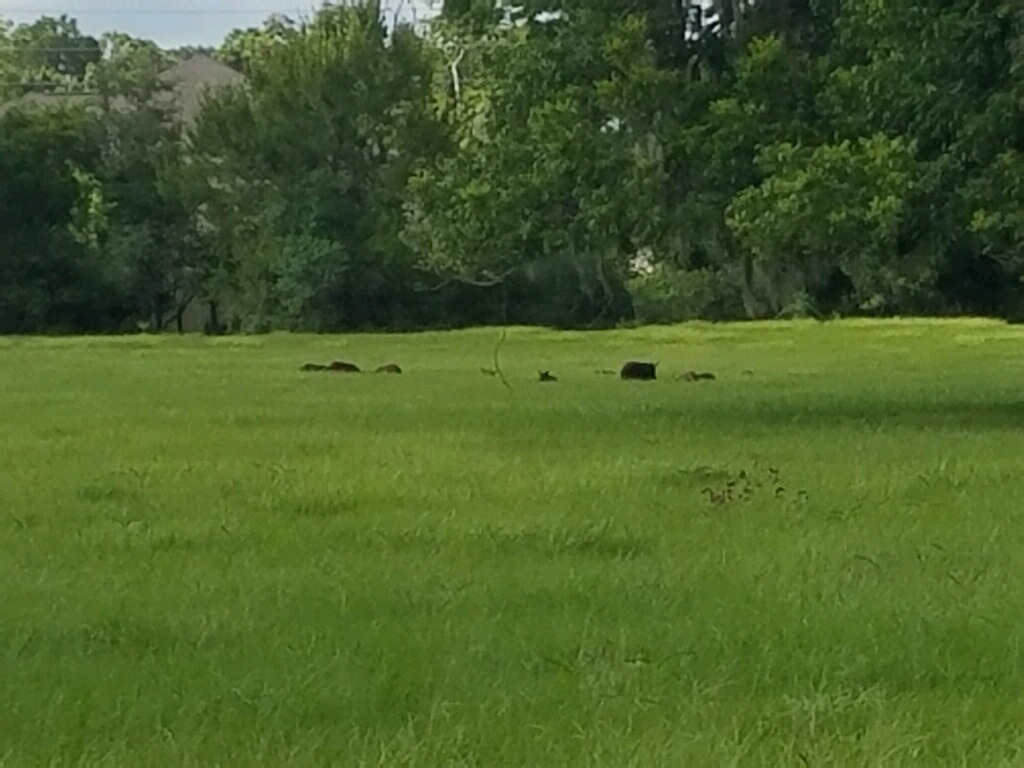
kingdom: Animalia
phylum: Chordata
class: Mammalia
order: Artiodactyla
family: Suidae
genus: Sus
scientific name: Sus scrofa
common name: Wild boar
